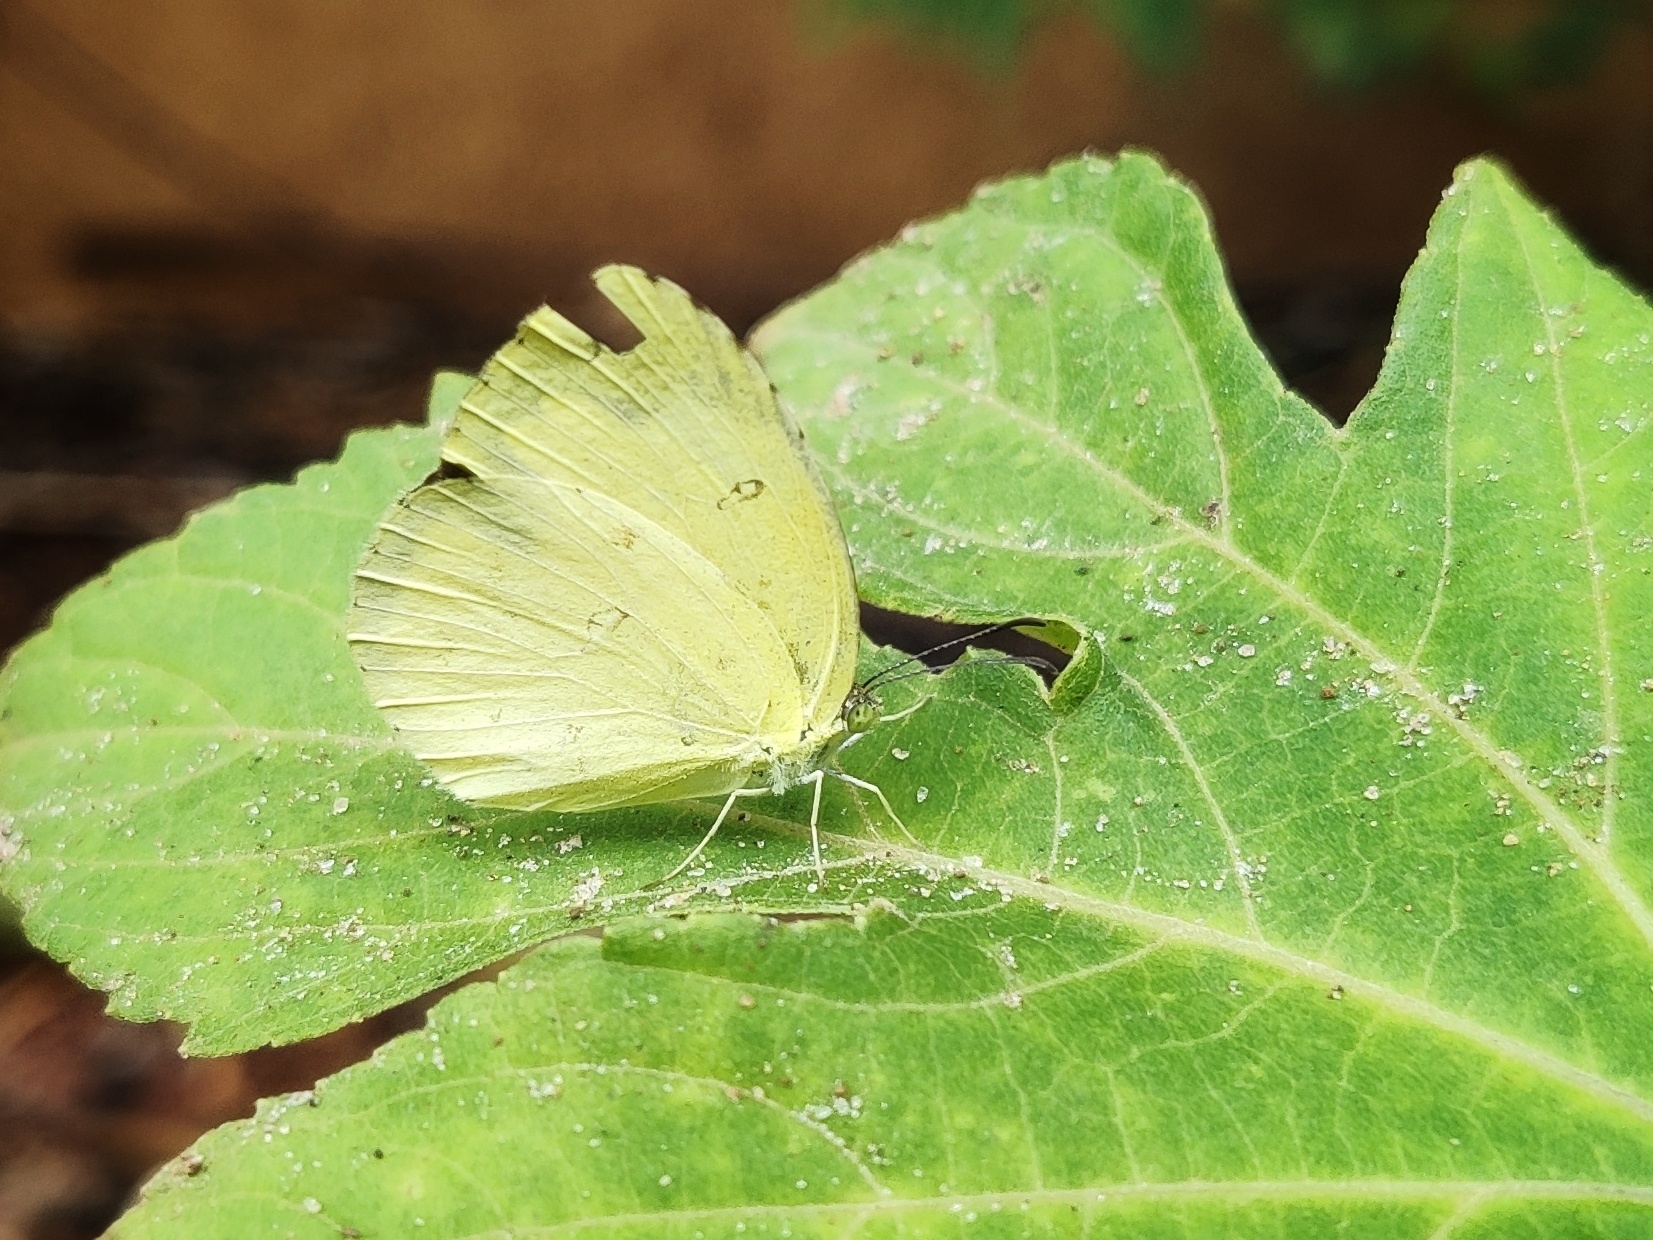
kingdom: Animalia
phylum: Arthropoda
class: Insecta
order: Lepidoptera
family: Pieridae
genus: Eurema
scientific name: Eurema hecabe
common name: Pale grass yellow
